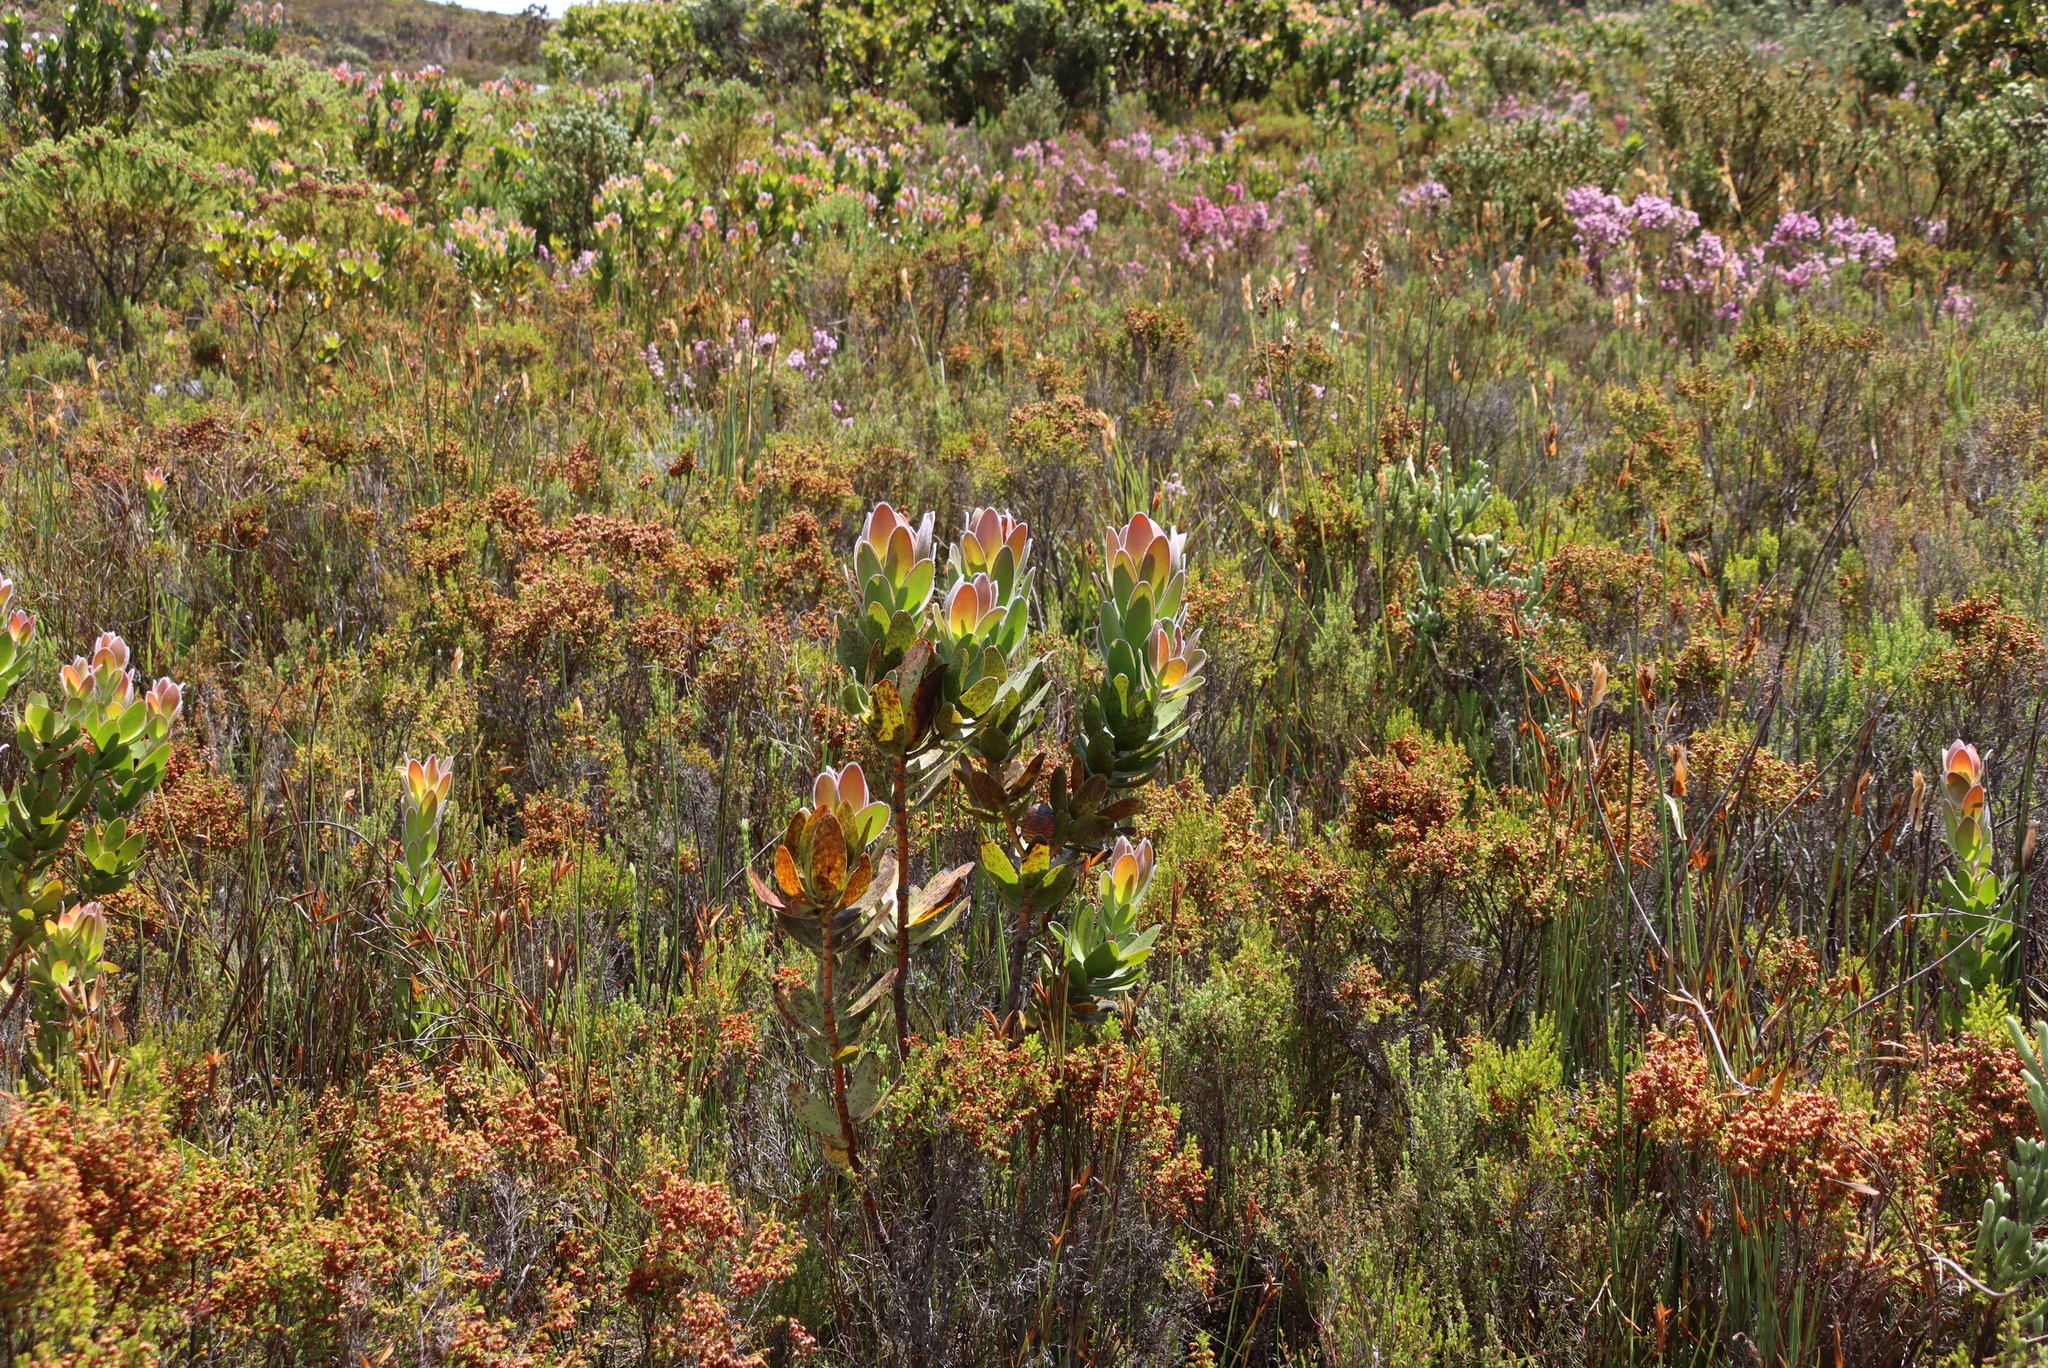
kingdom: Plantae
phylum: Tracheophyta
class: Magnoliopsida
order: Proteales
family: Proteaceae
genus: Leucadendron
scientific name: Leucadendron gandogeri
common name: Broad-leaf conebush
